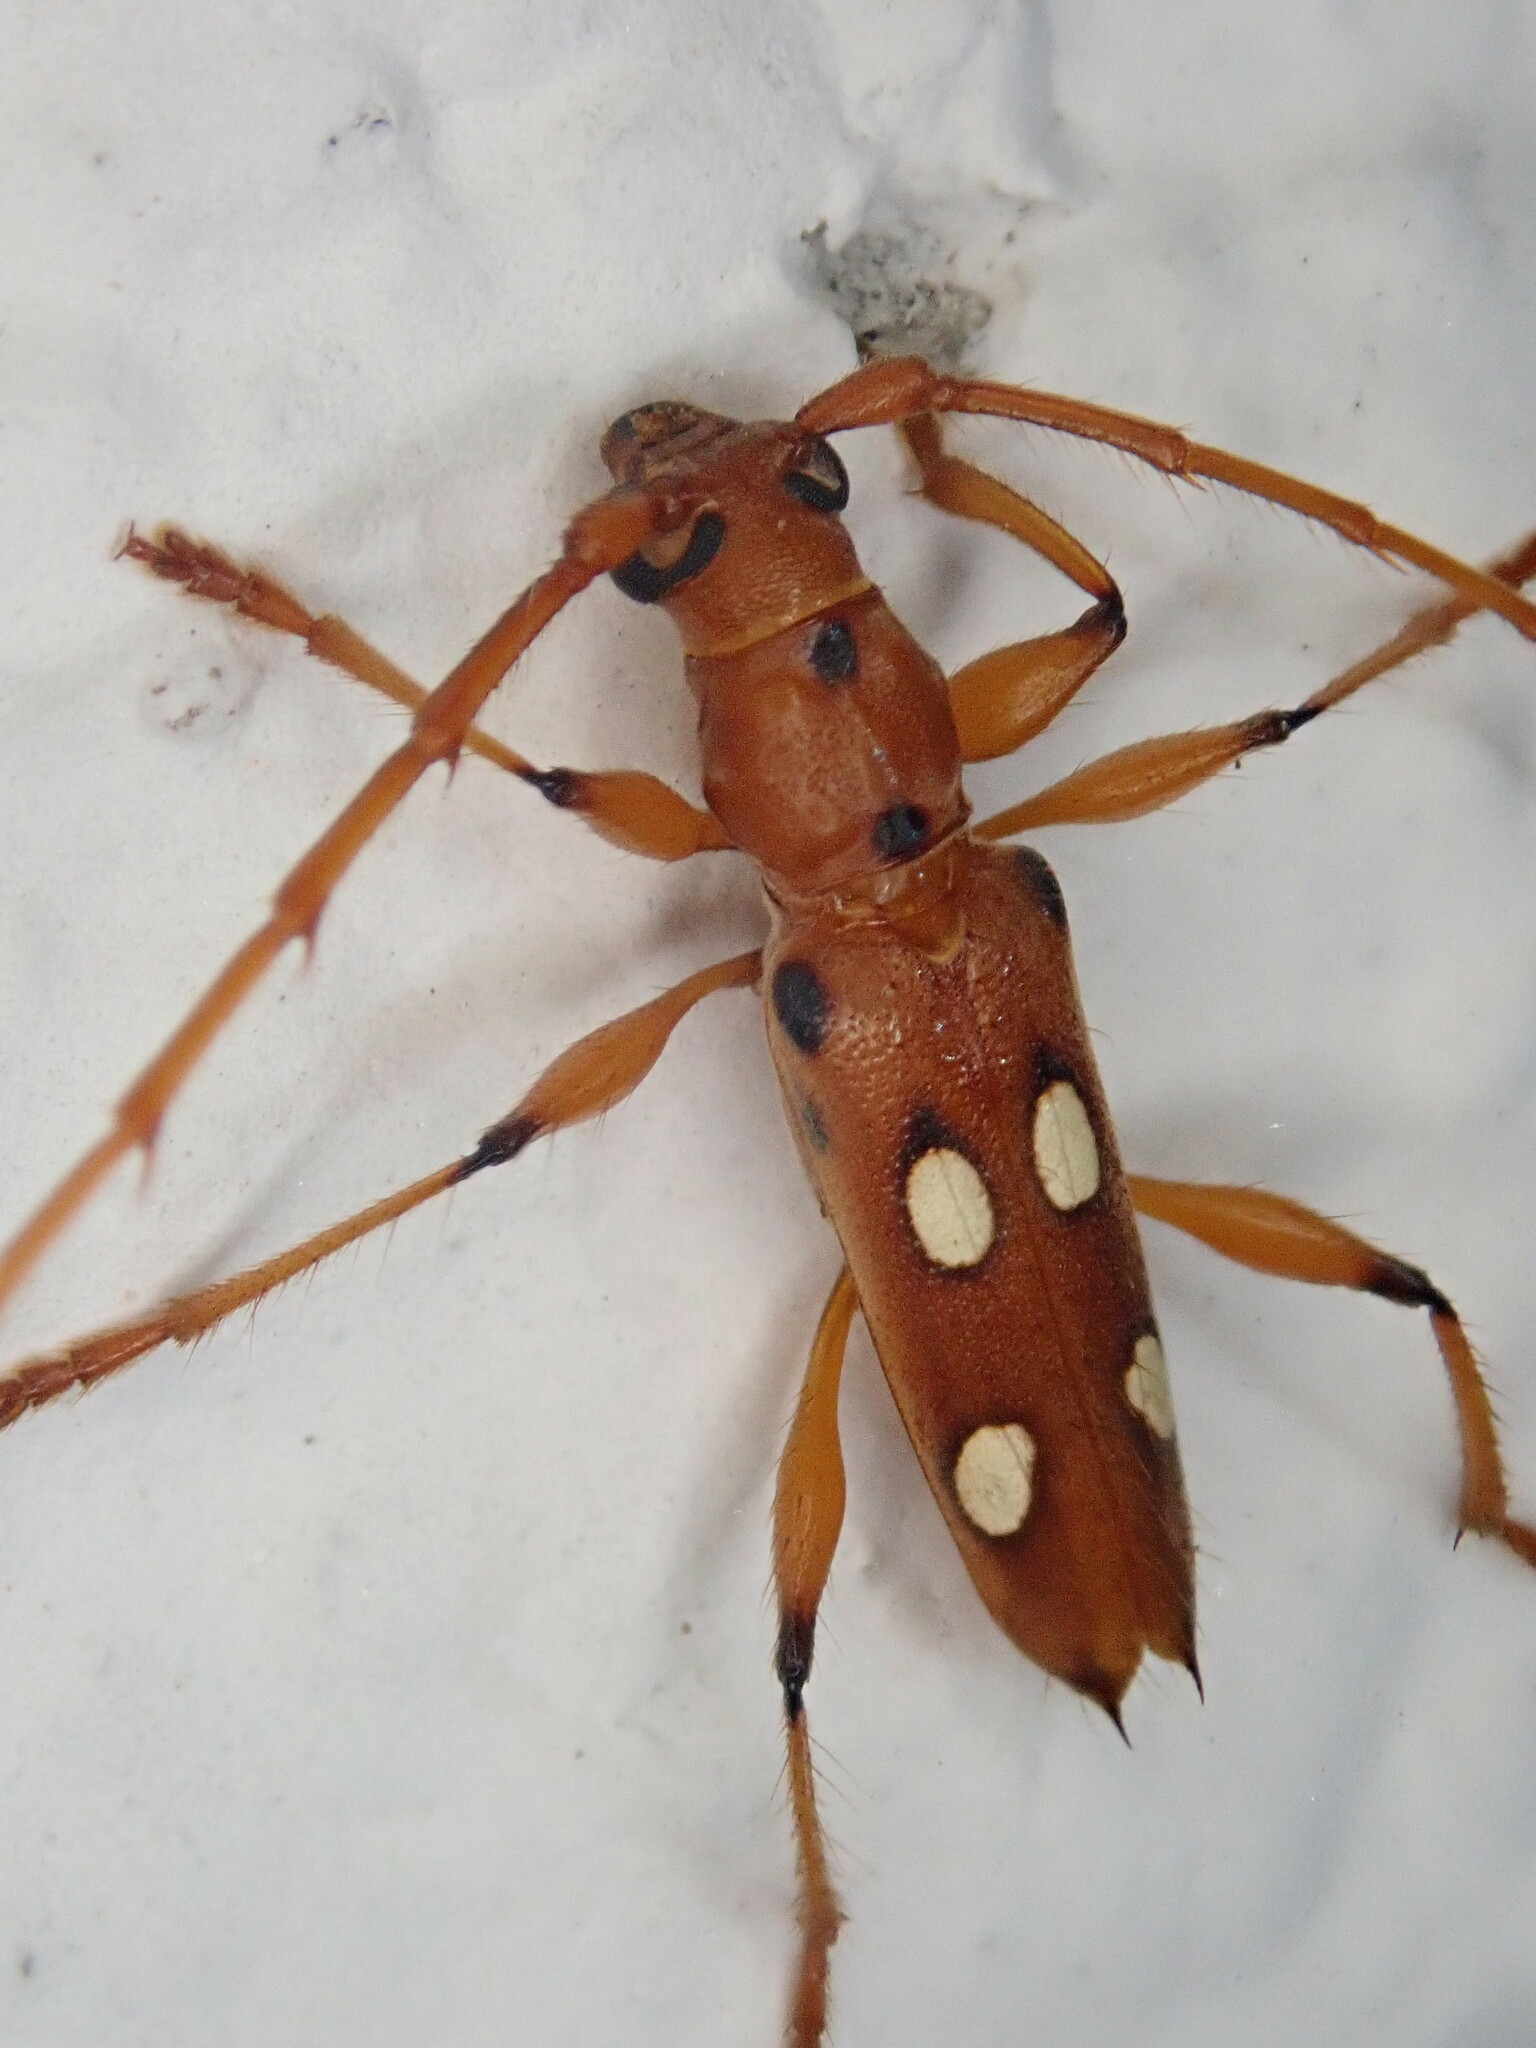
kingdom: Animalia
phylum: Arthropoda
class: Insecta
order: Coleoptera
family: Cerambycidae
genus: Paranyssicus
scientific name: Paranyssicus conspicillatus
